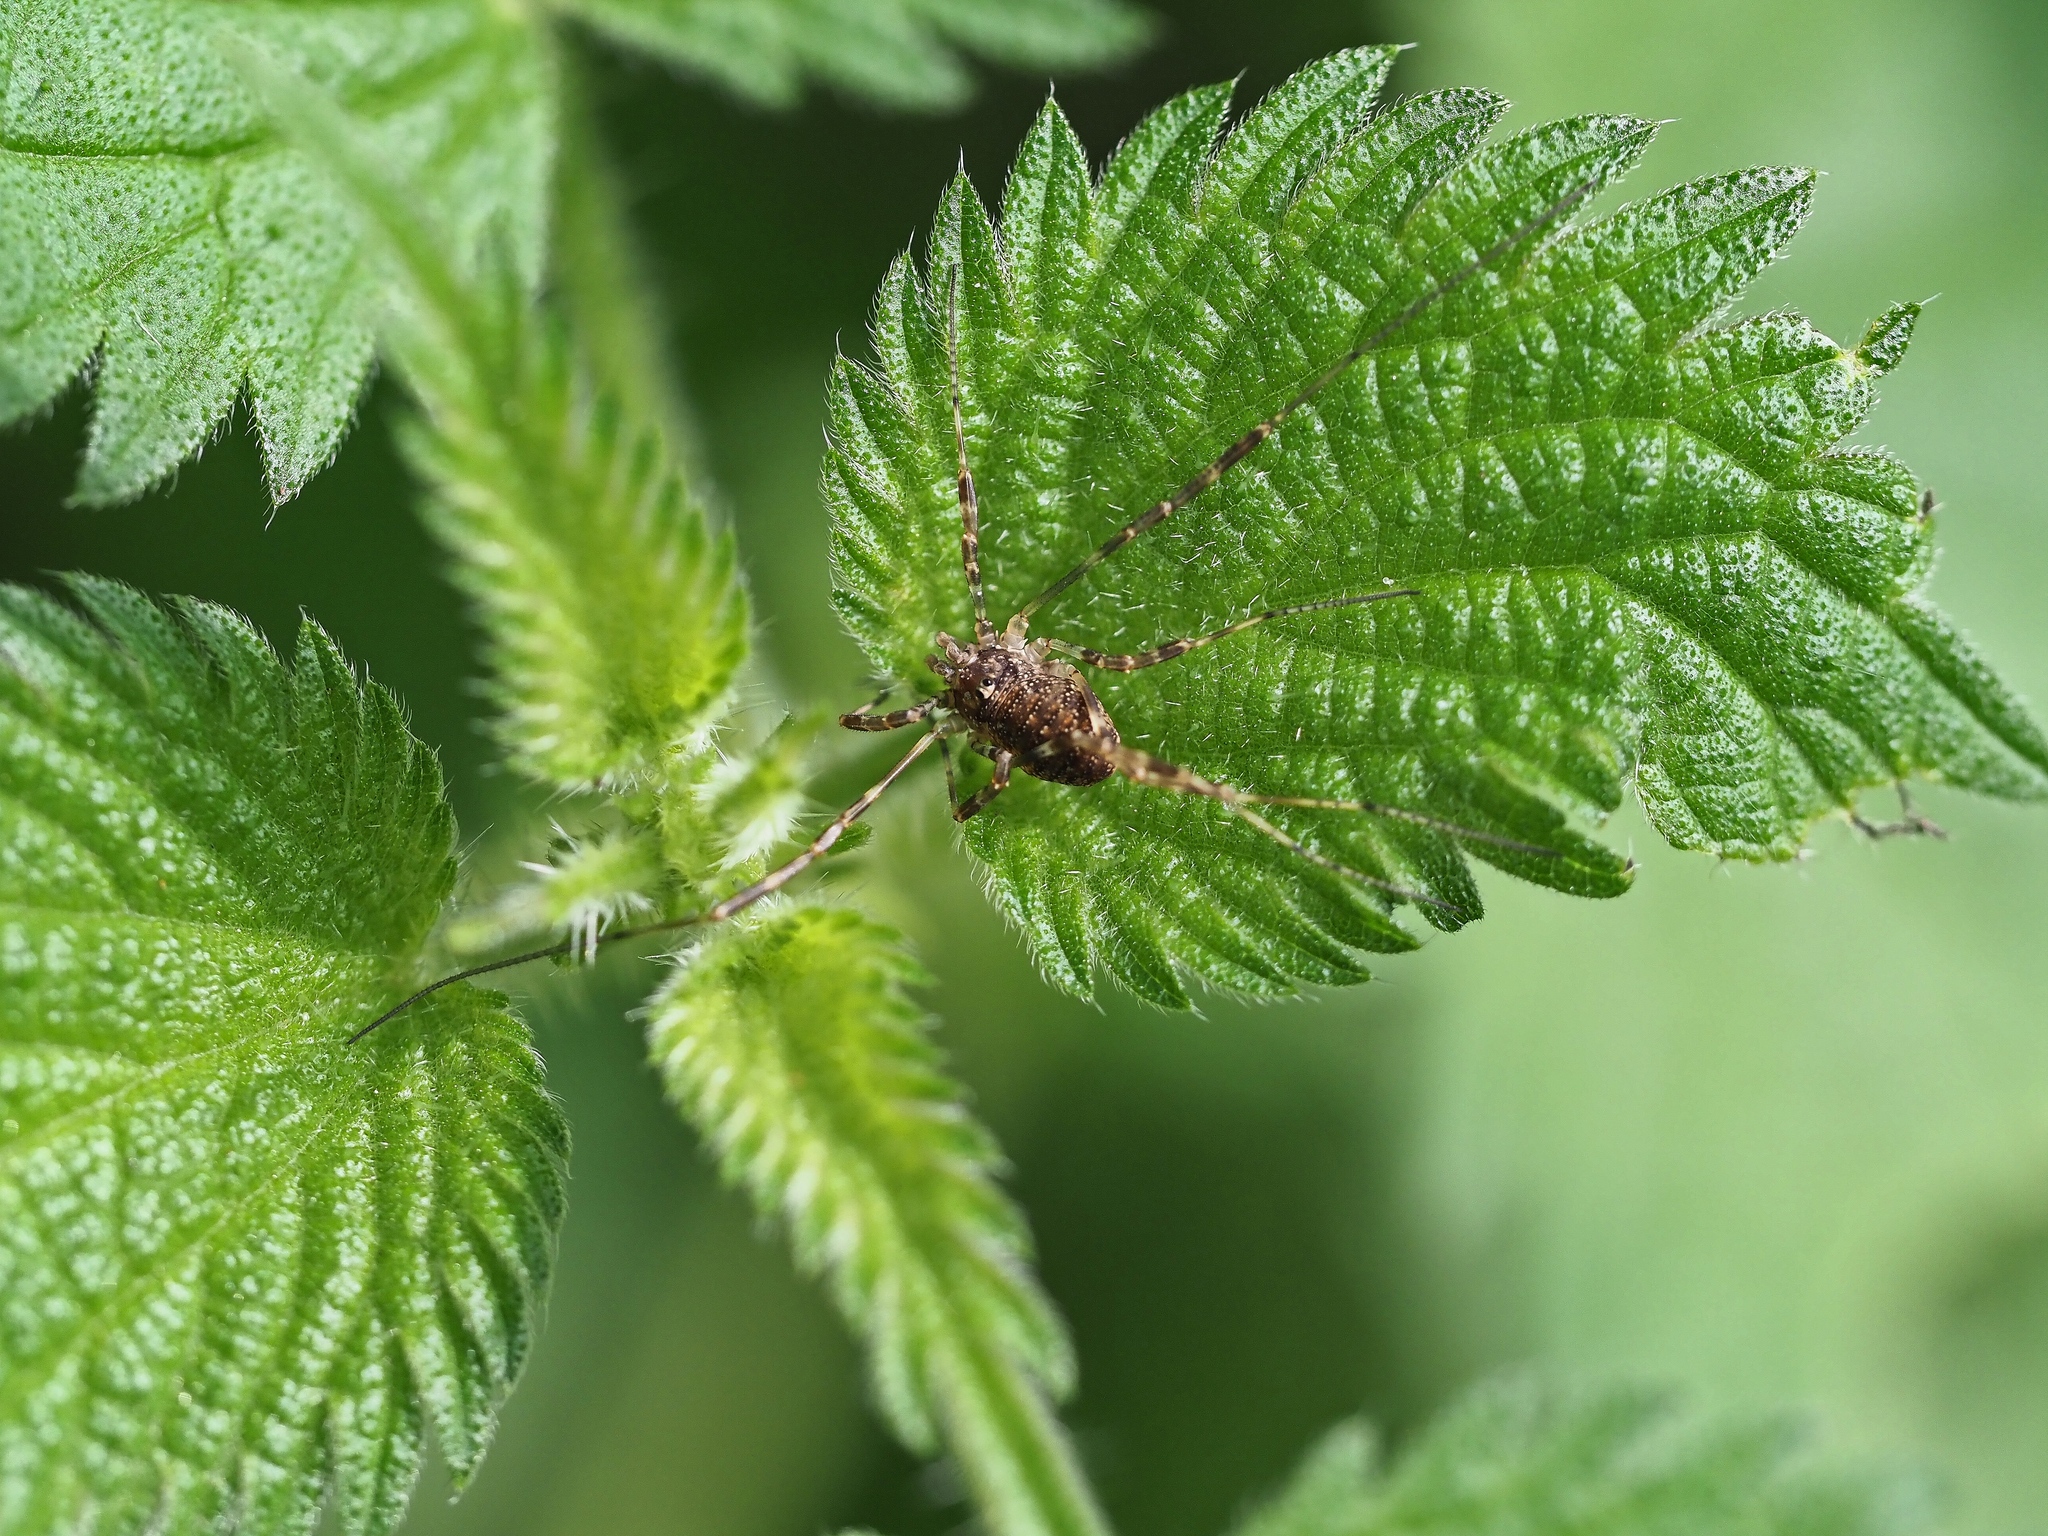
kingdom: Animalia
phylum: Arthropoda
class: Arachnida
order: Opiliones
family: Phalangiidae
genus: Paroligolophus
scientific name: Paroligolophus agrestis
